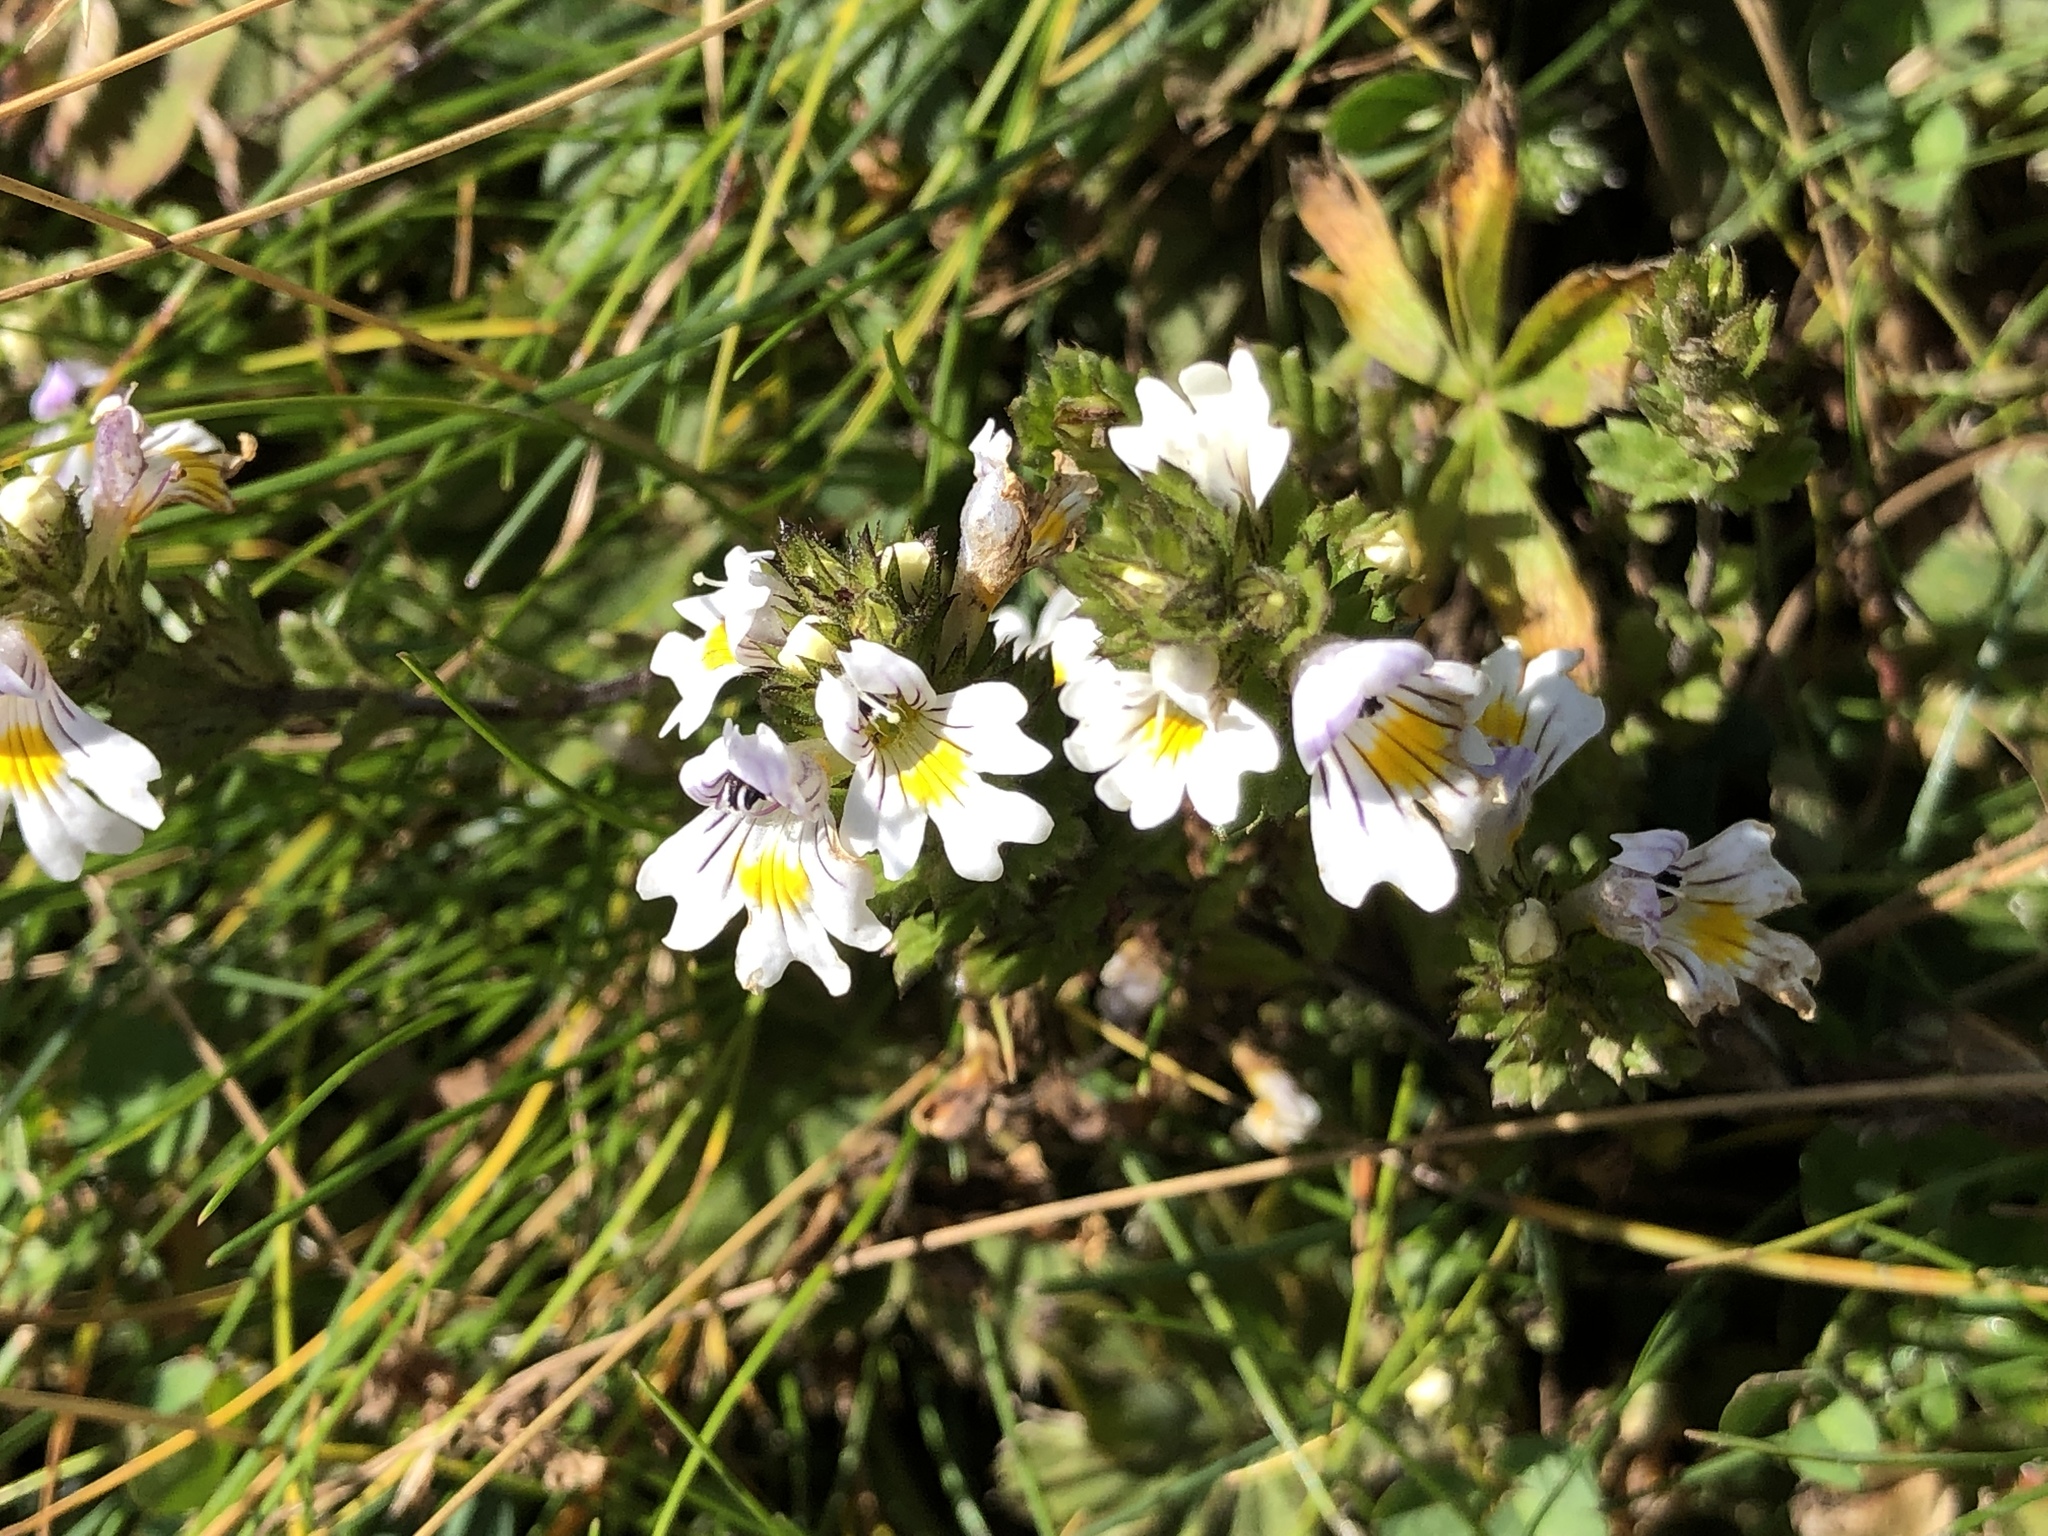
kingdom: Plantae
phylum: Tracheophyta
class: Magnoliopsida
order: Lamiales
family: Orobanchaceae
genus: Euphrasia
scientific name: Euphrasia officinalis
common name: Eyebright
